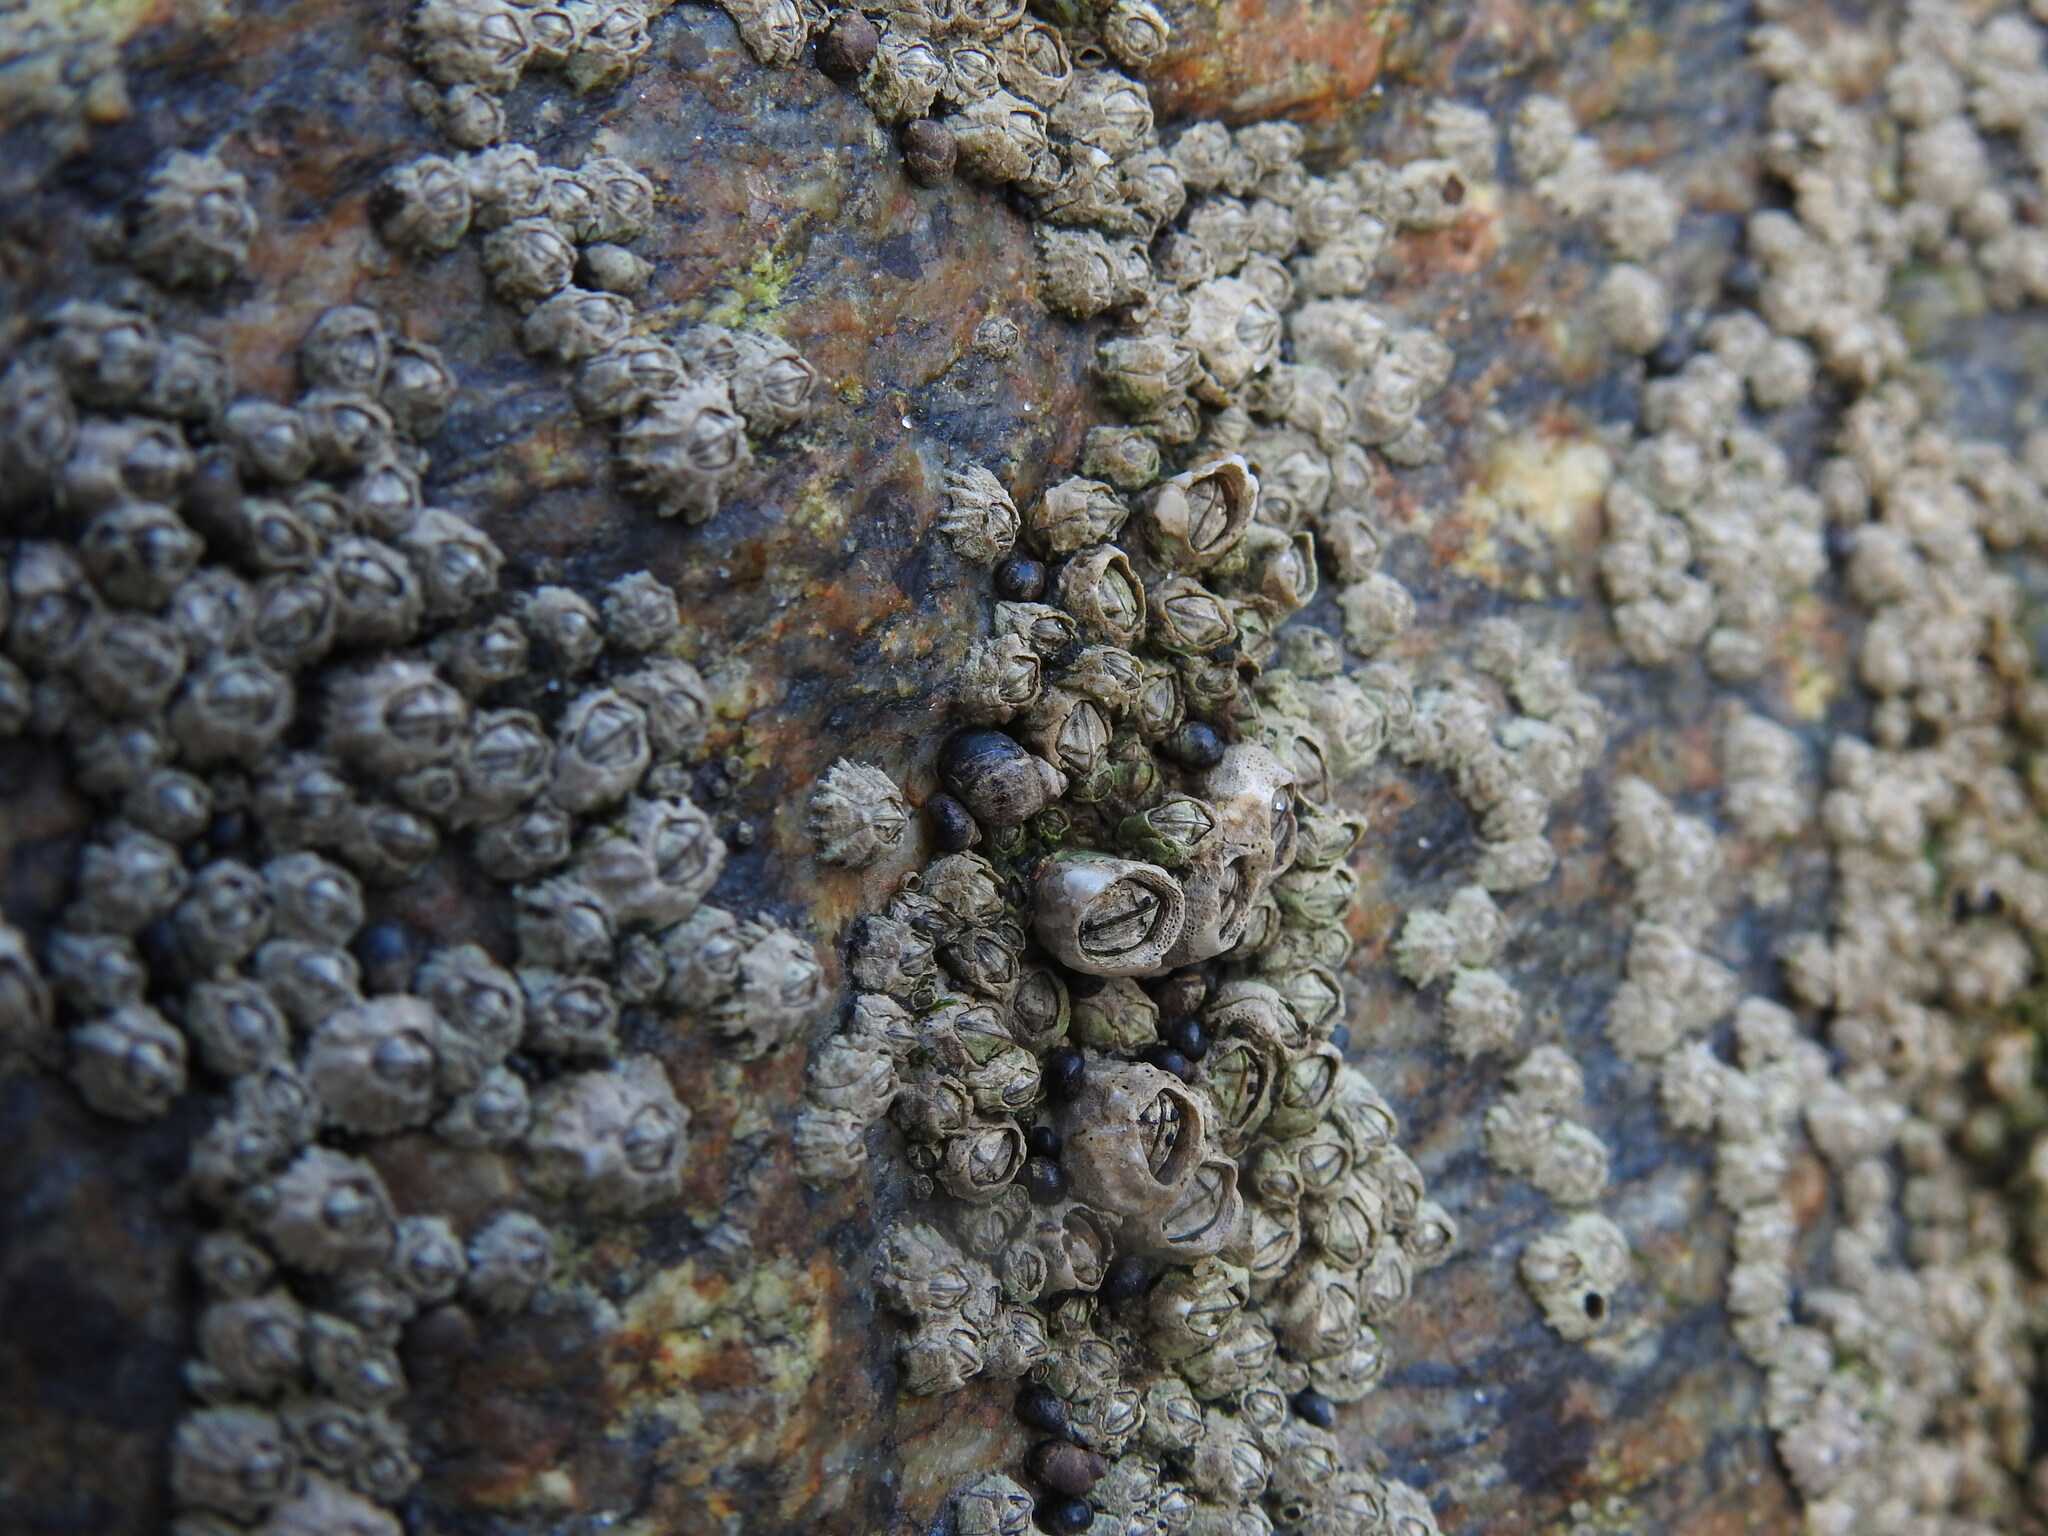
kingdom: Animalia
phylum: Mollusca
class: Gastropoda
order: Littorinimorpha
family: Littorinidae
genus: Melarhaphe
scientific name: Melarhaphe neritoides
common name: Small periwinkle
